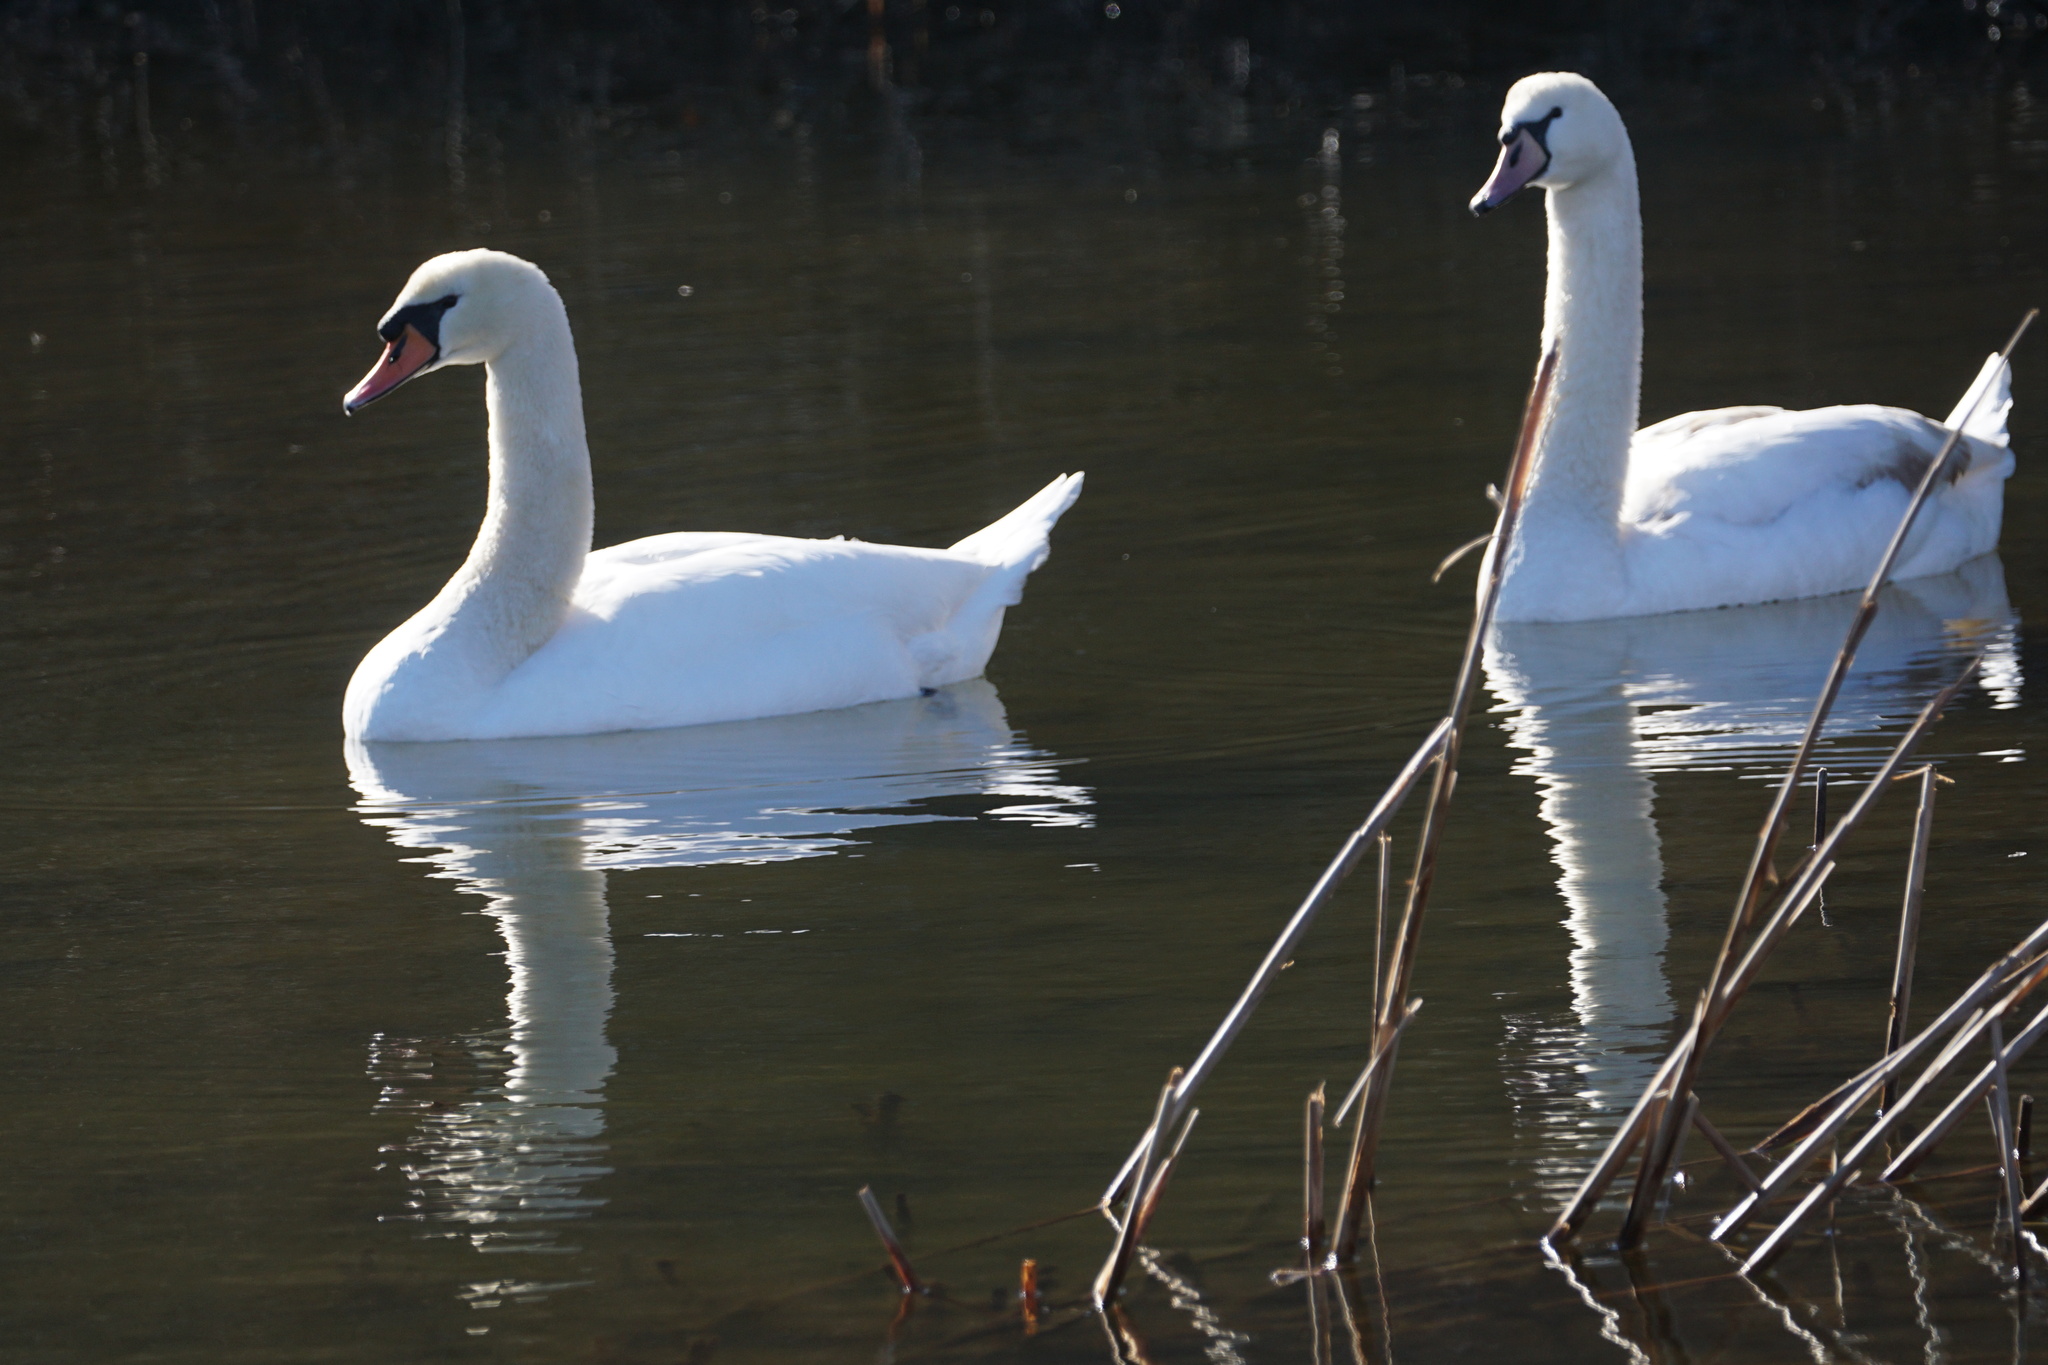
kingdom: Animalia
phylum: Chordata
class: Aves
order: Anseriformes
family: Anatidae
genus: Cygnus
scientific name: Cygnus olor
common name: Mute swan
